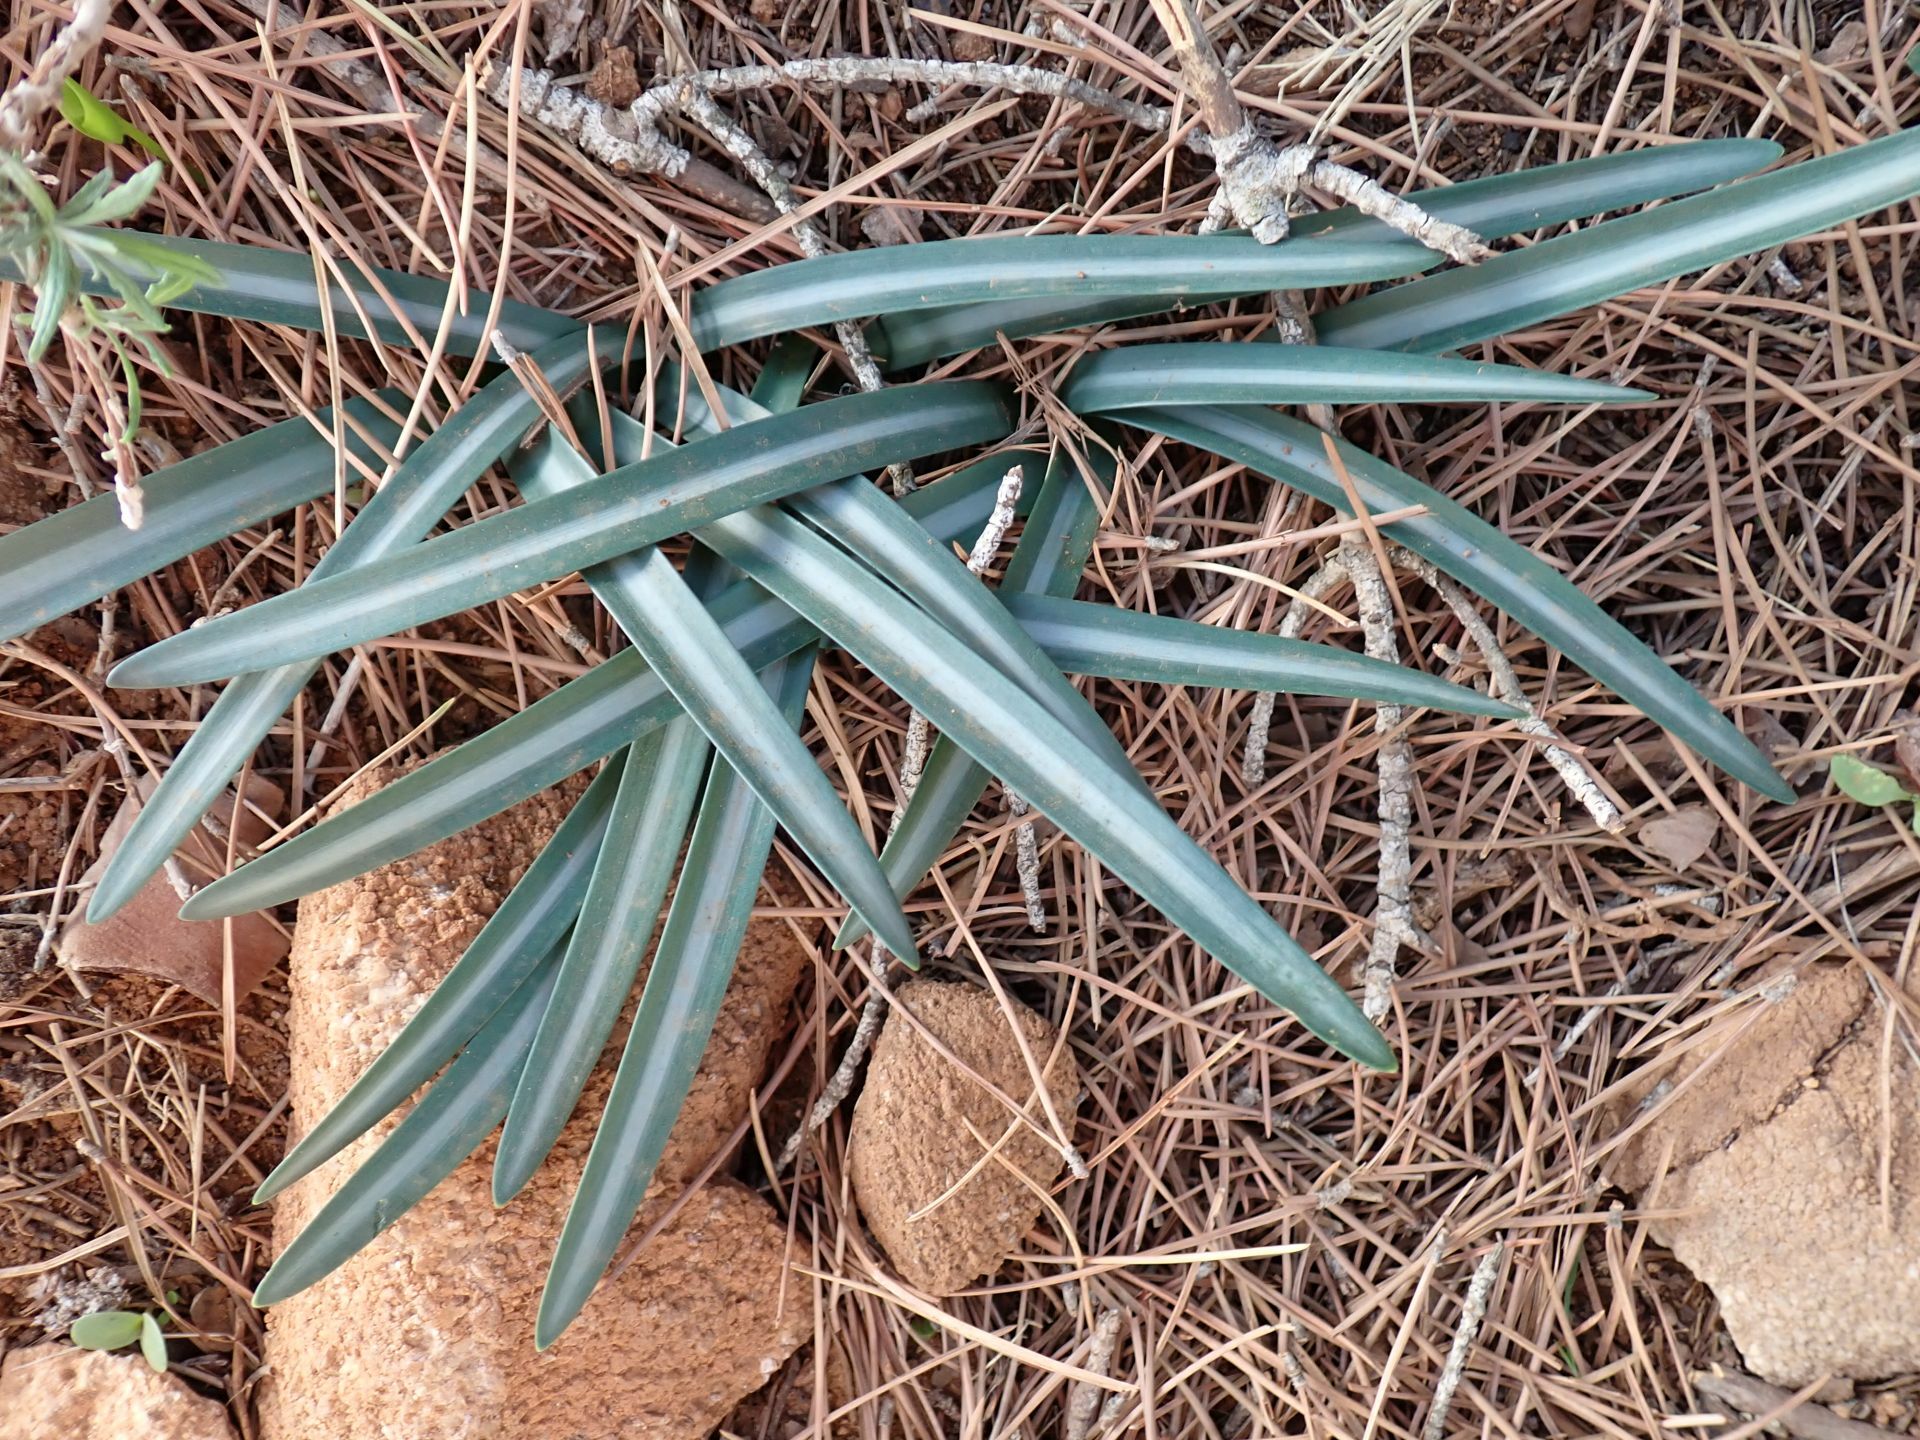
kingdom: Plantae
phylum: Tracheophyta
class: Liliopsida
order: Asparagales
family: Amaryllidaceae
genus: Lapiedra
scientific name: Lapiedra martinezii
